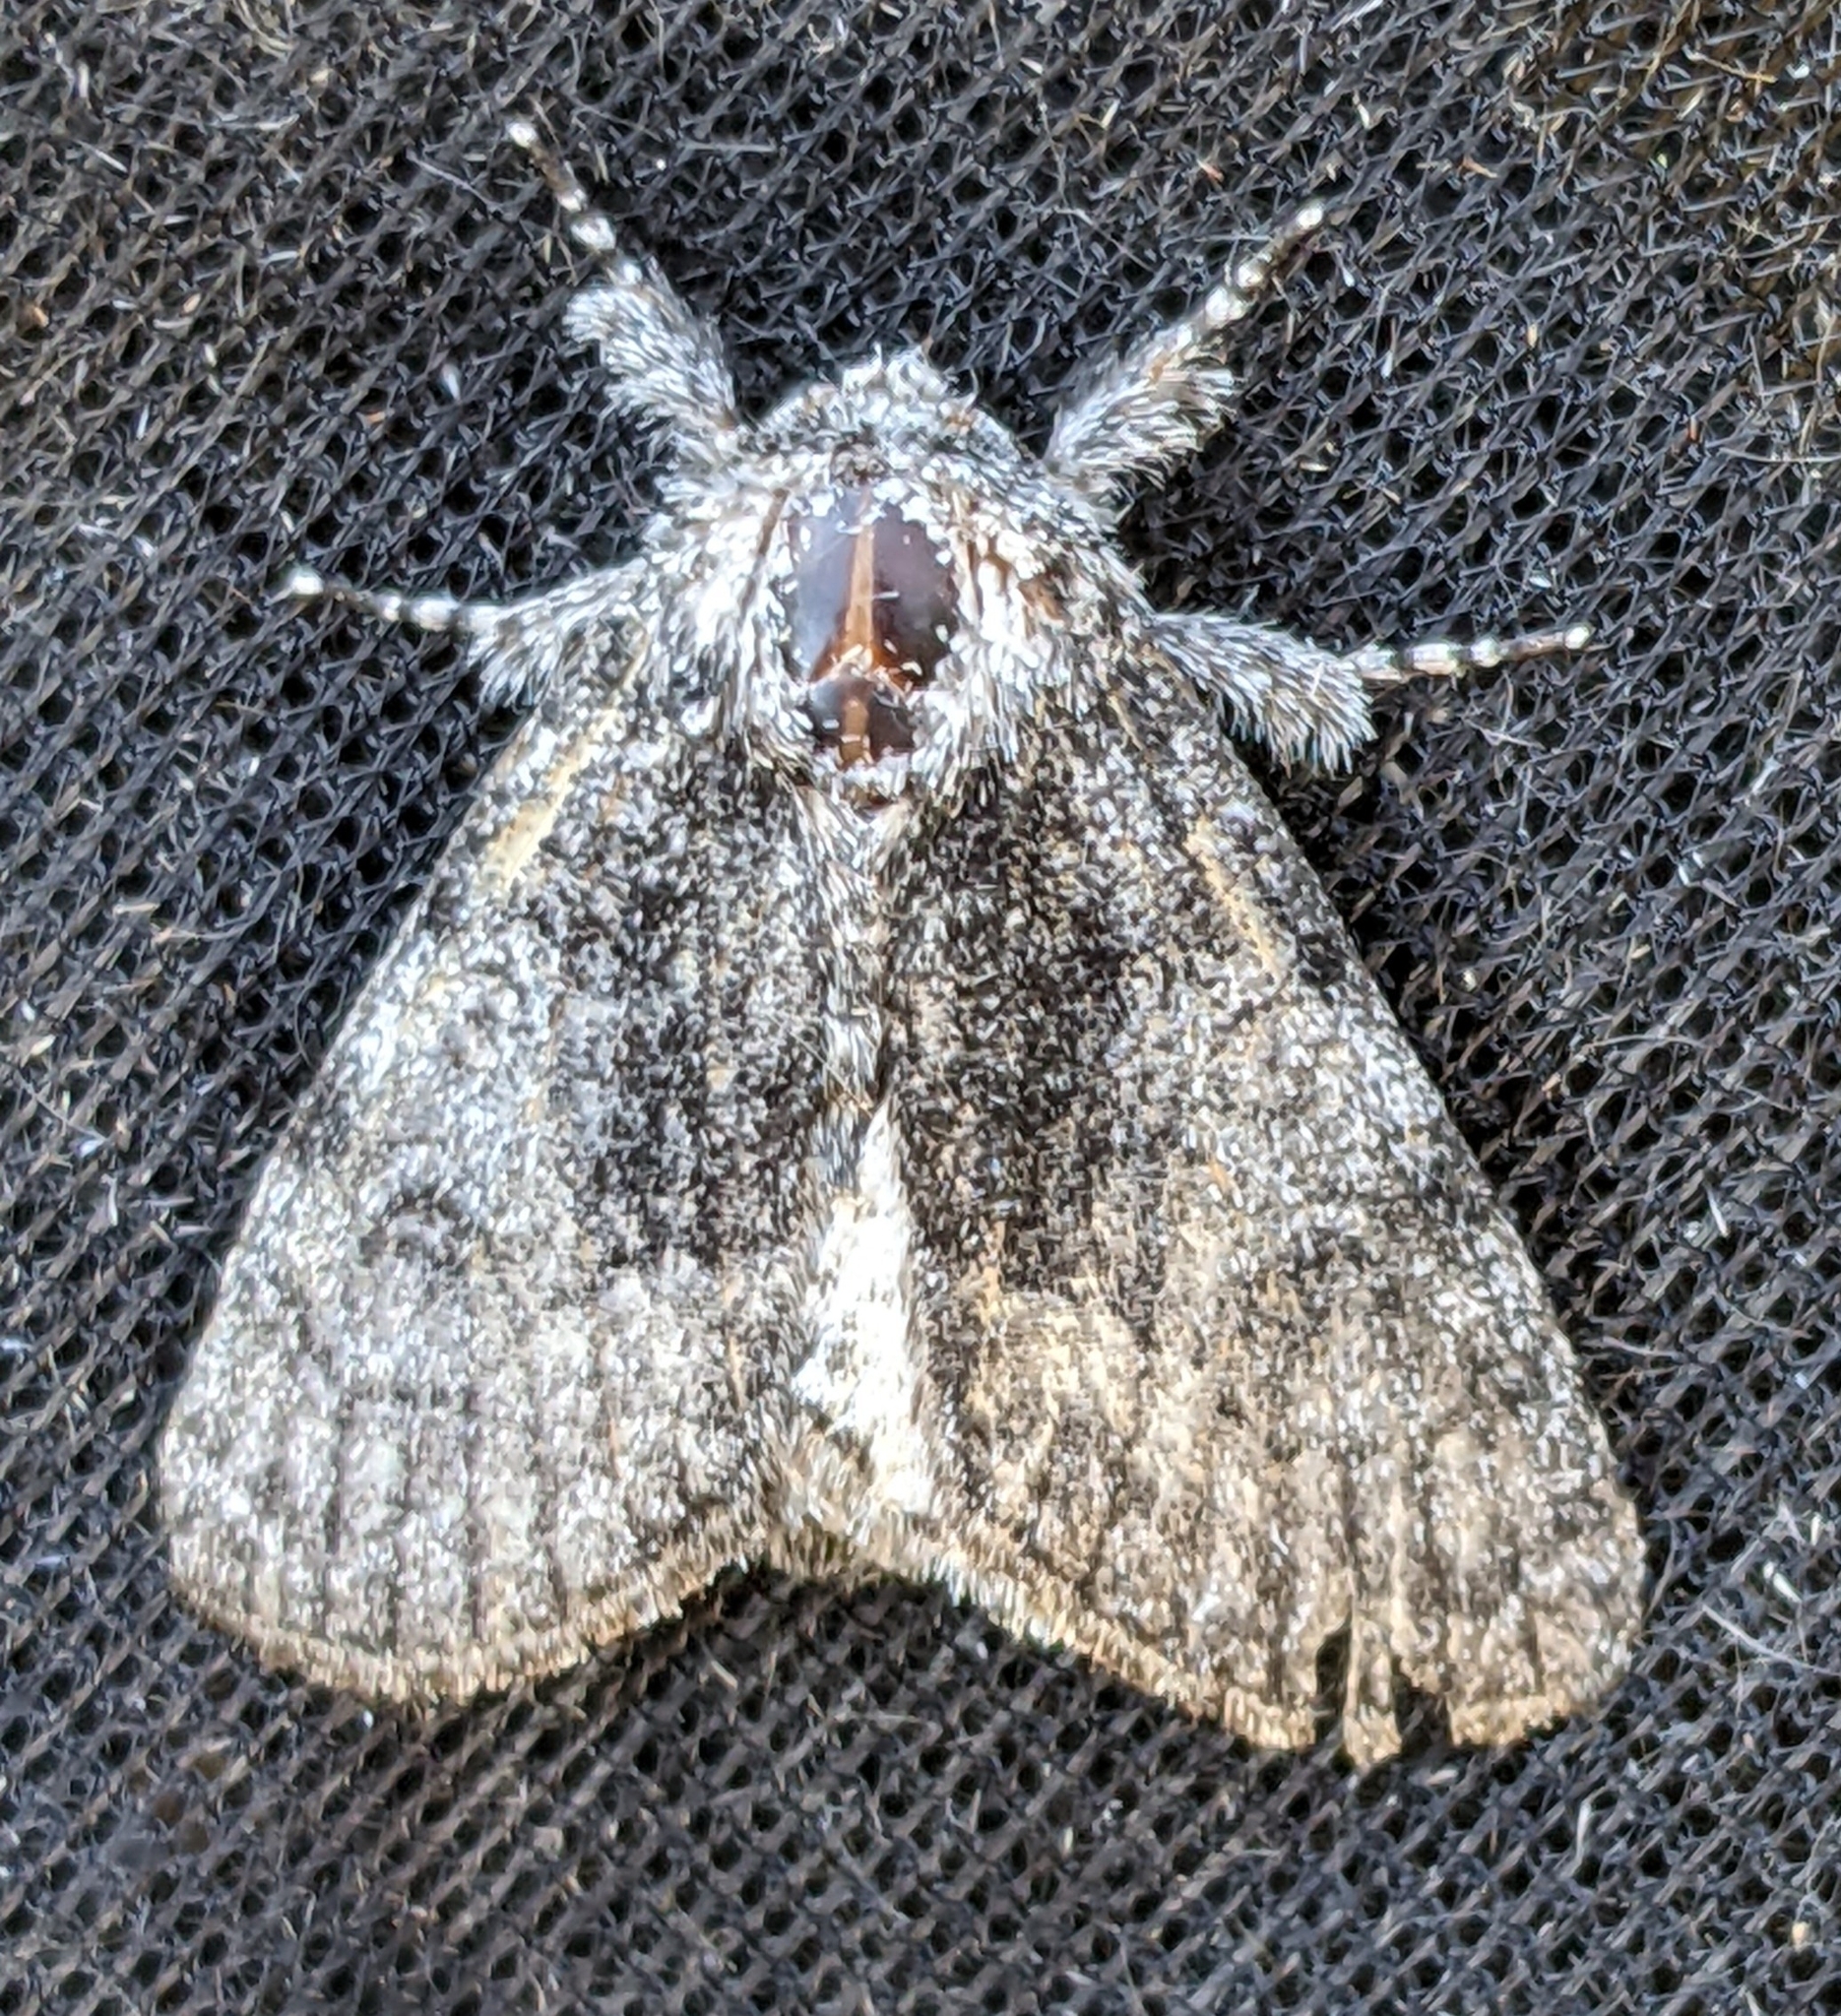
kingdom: Animalia
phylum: Arthropoda
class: Insecta
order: Lepidoptera
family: Noctuidae
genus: Raphia
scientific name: Raphia frater
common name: Brother
